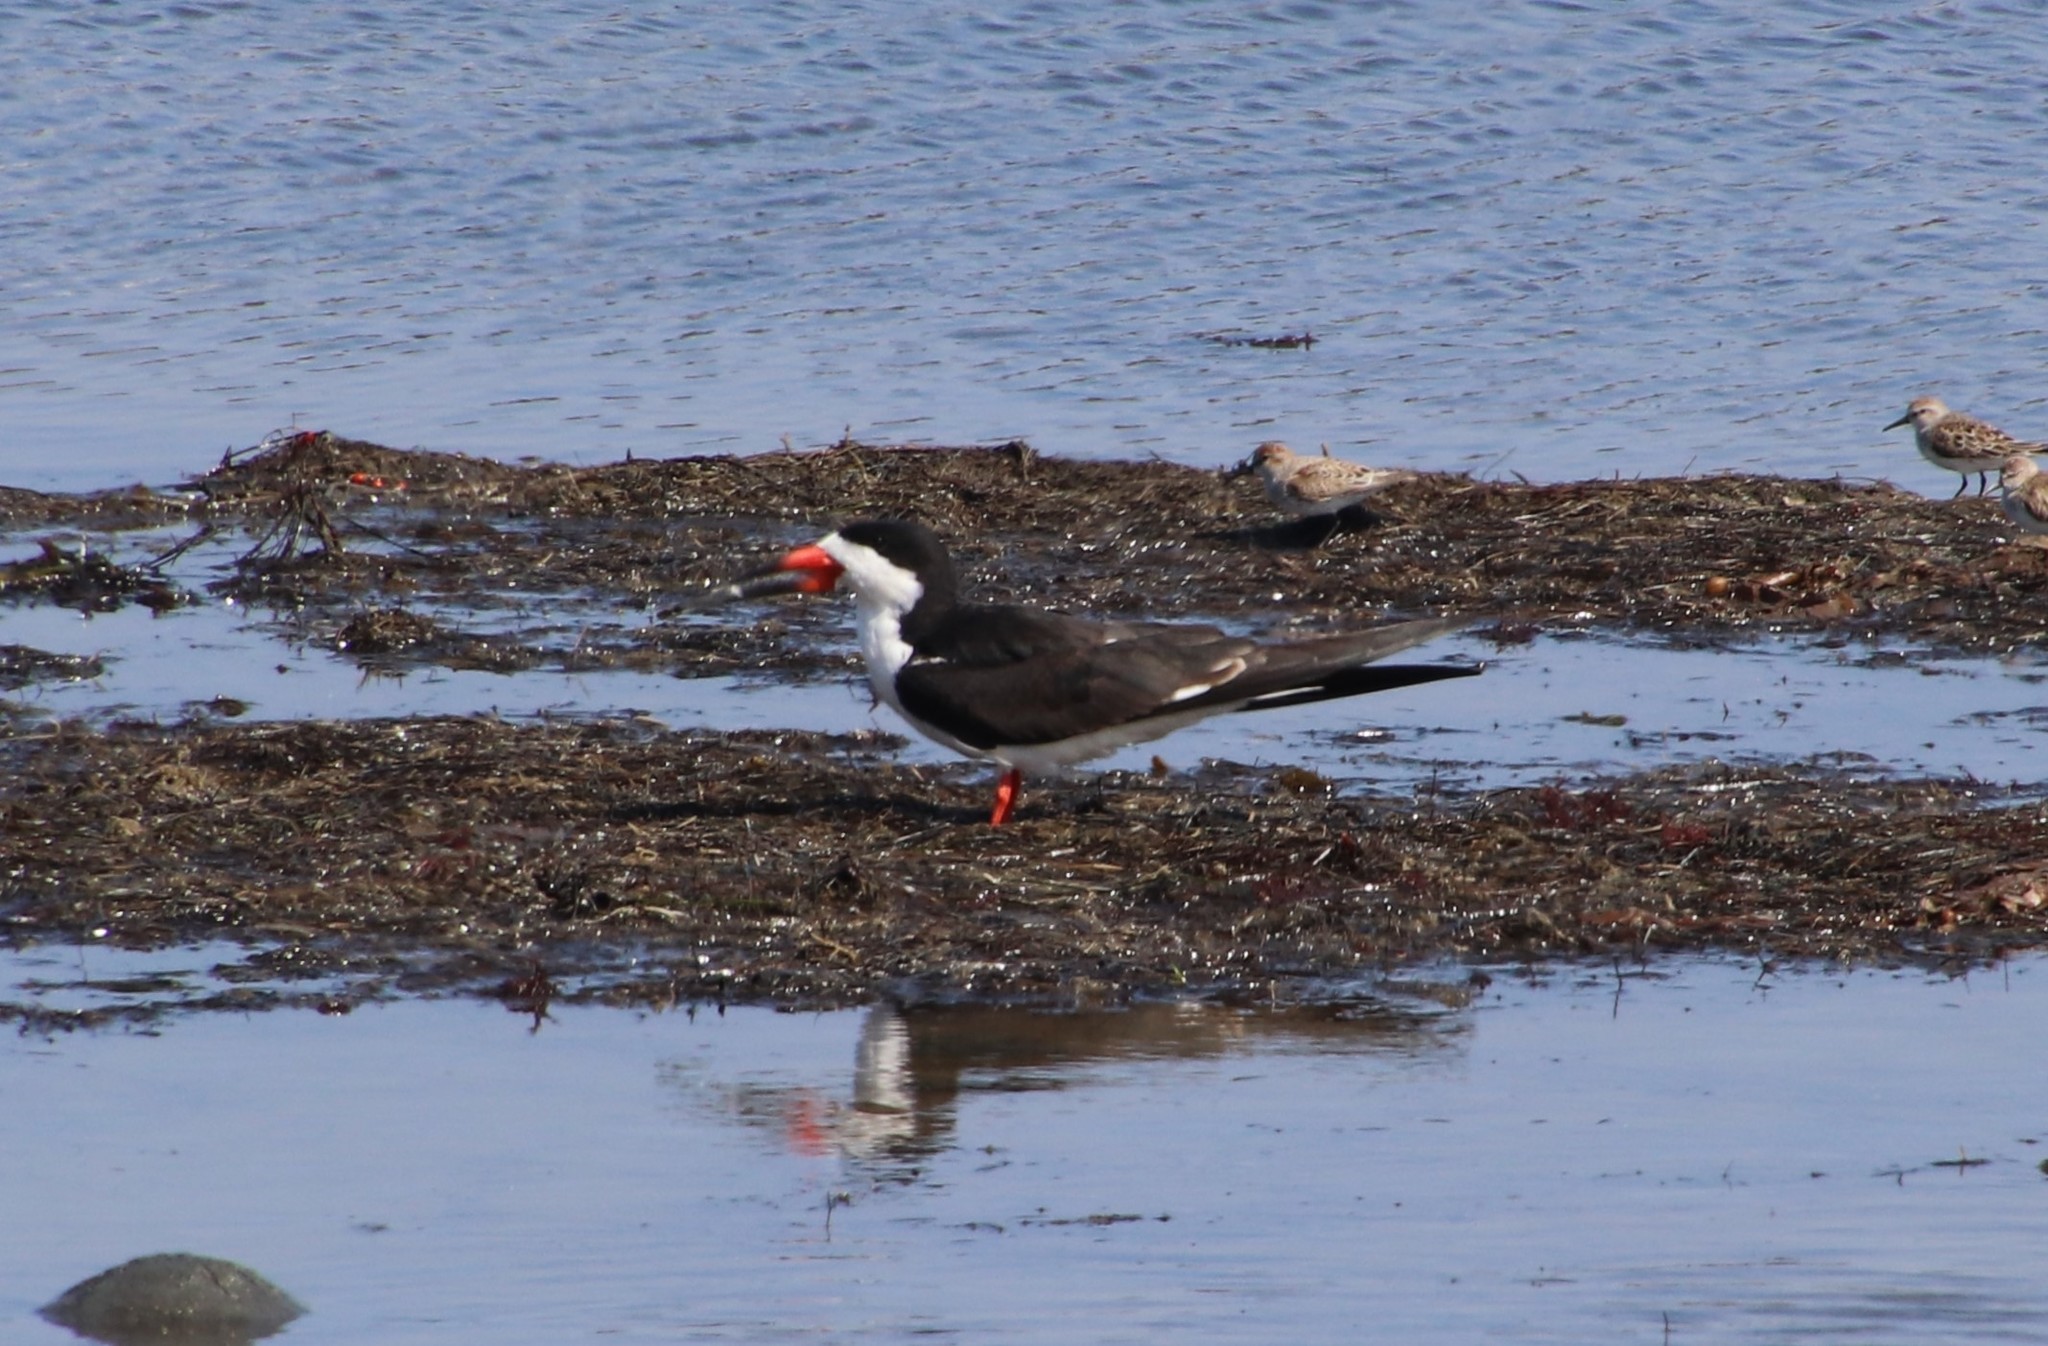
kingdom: Animalia
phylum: Chordata
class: Aves
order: Charadriiformes
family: Laridae
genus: Rynchops
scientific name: Rynchops niger
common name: Black skimmer
